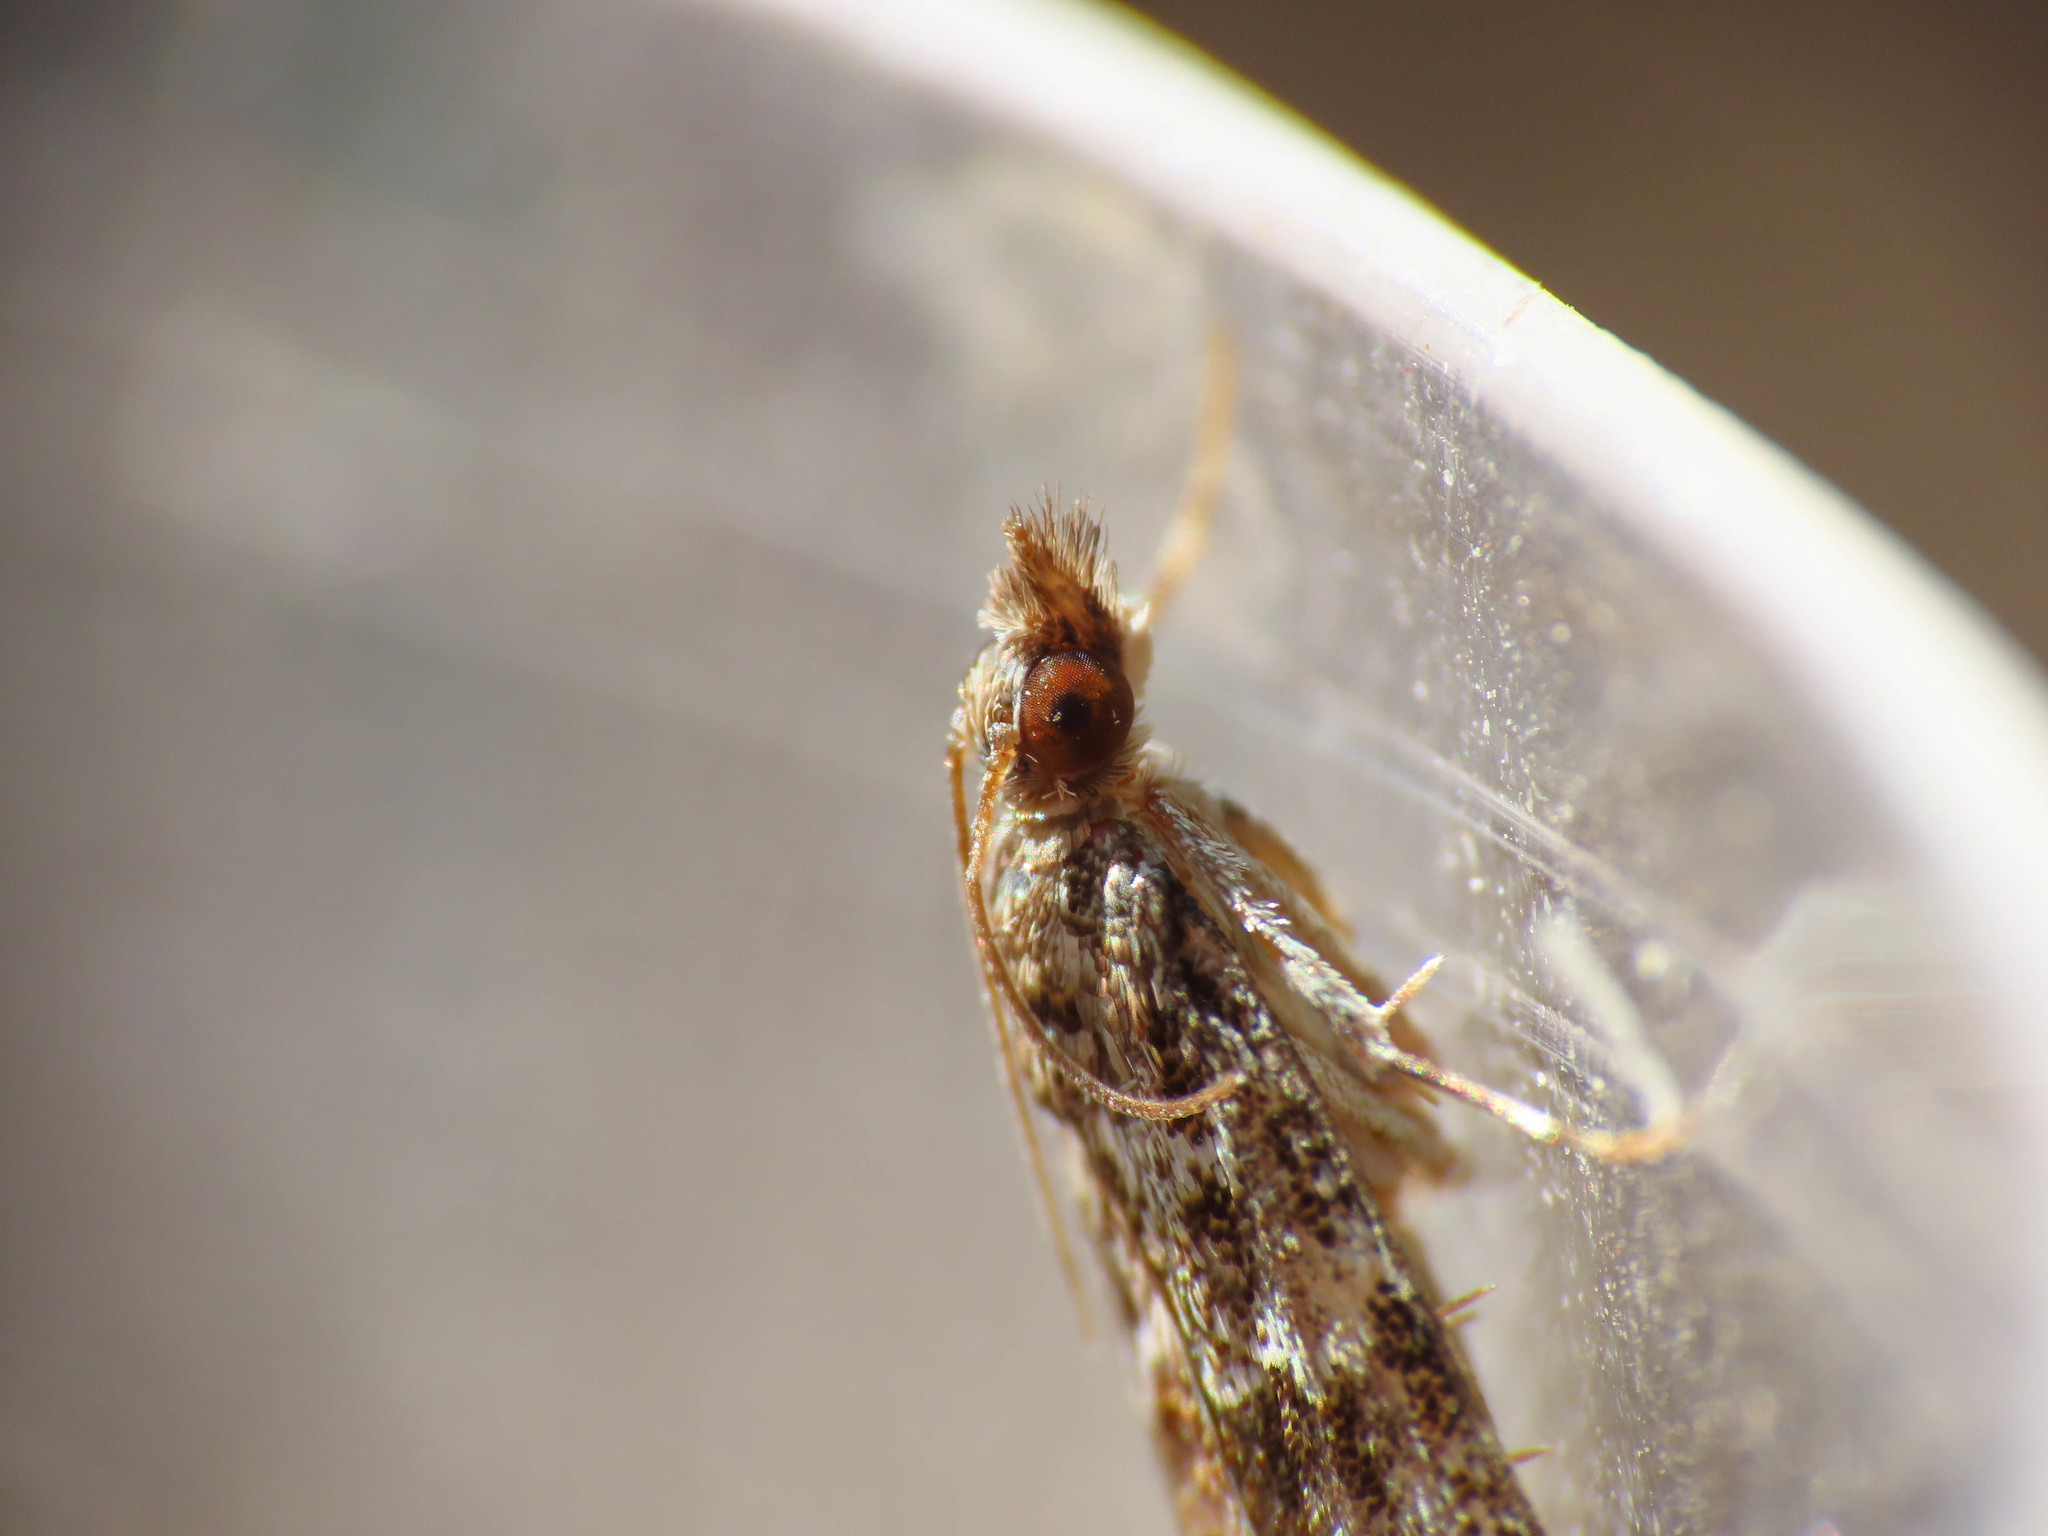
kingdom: Animalia
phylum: Arthropoda
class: Insecta
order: Lepidoptera
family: Crambidae
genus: Eudonia
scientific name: Eudonia mercurella
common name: Small grey
